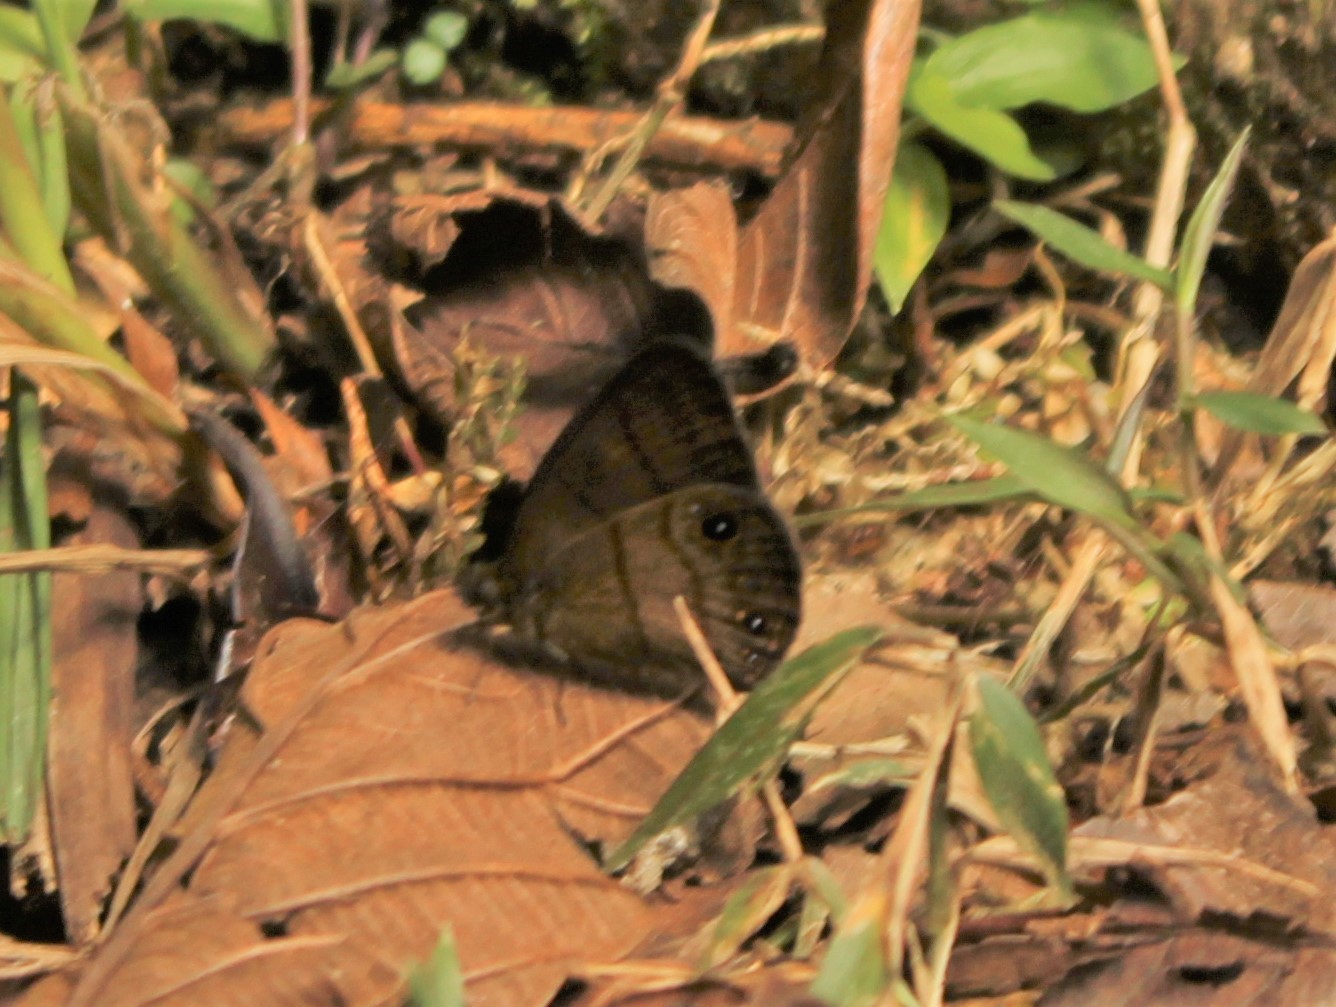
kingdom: Animalia
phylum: Arthropoda
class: Insecta
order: Lepidoptera
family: Nymphalidae
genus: Hermeuptychia
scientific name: Hermeuptychia harmonia
